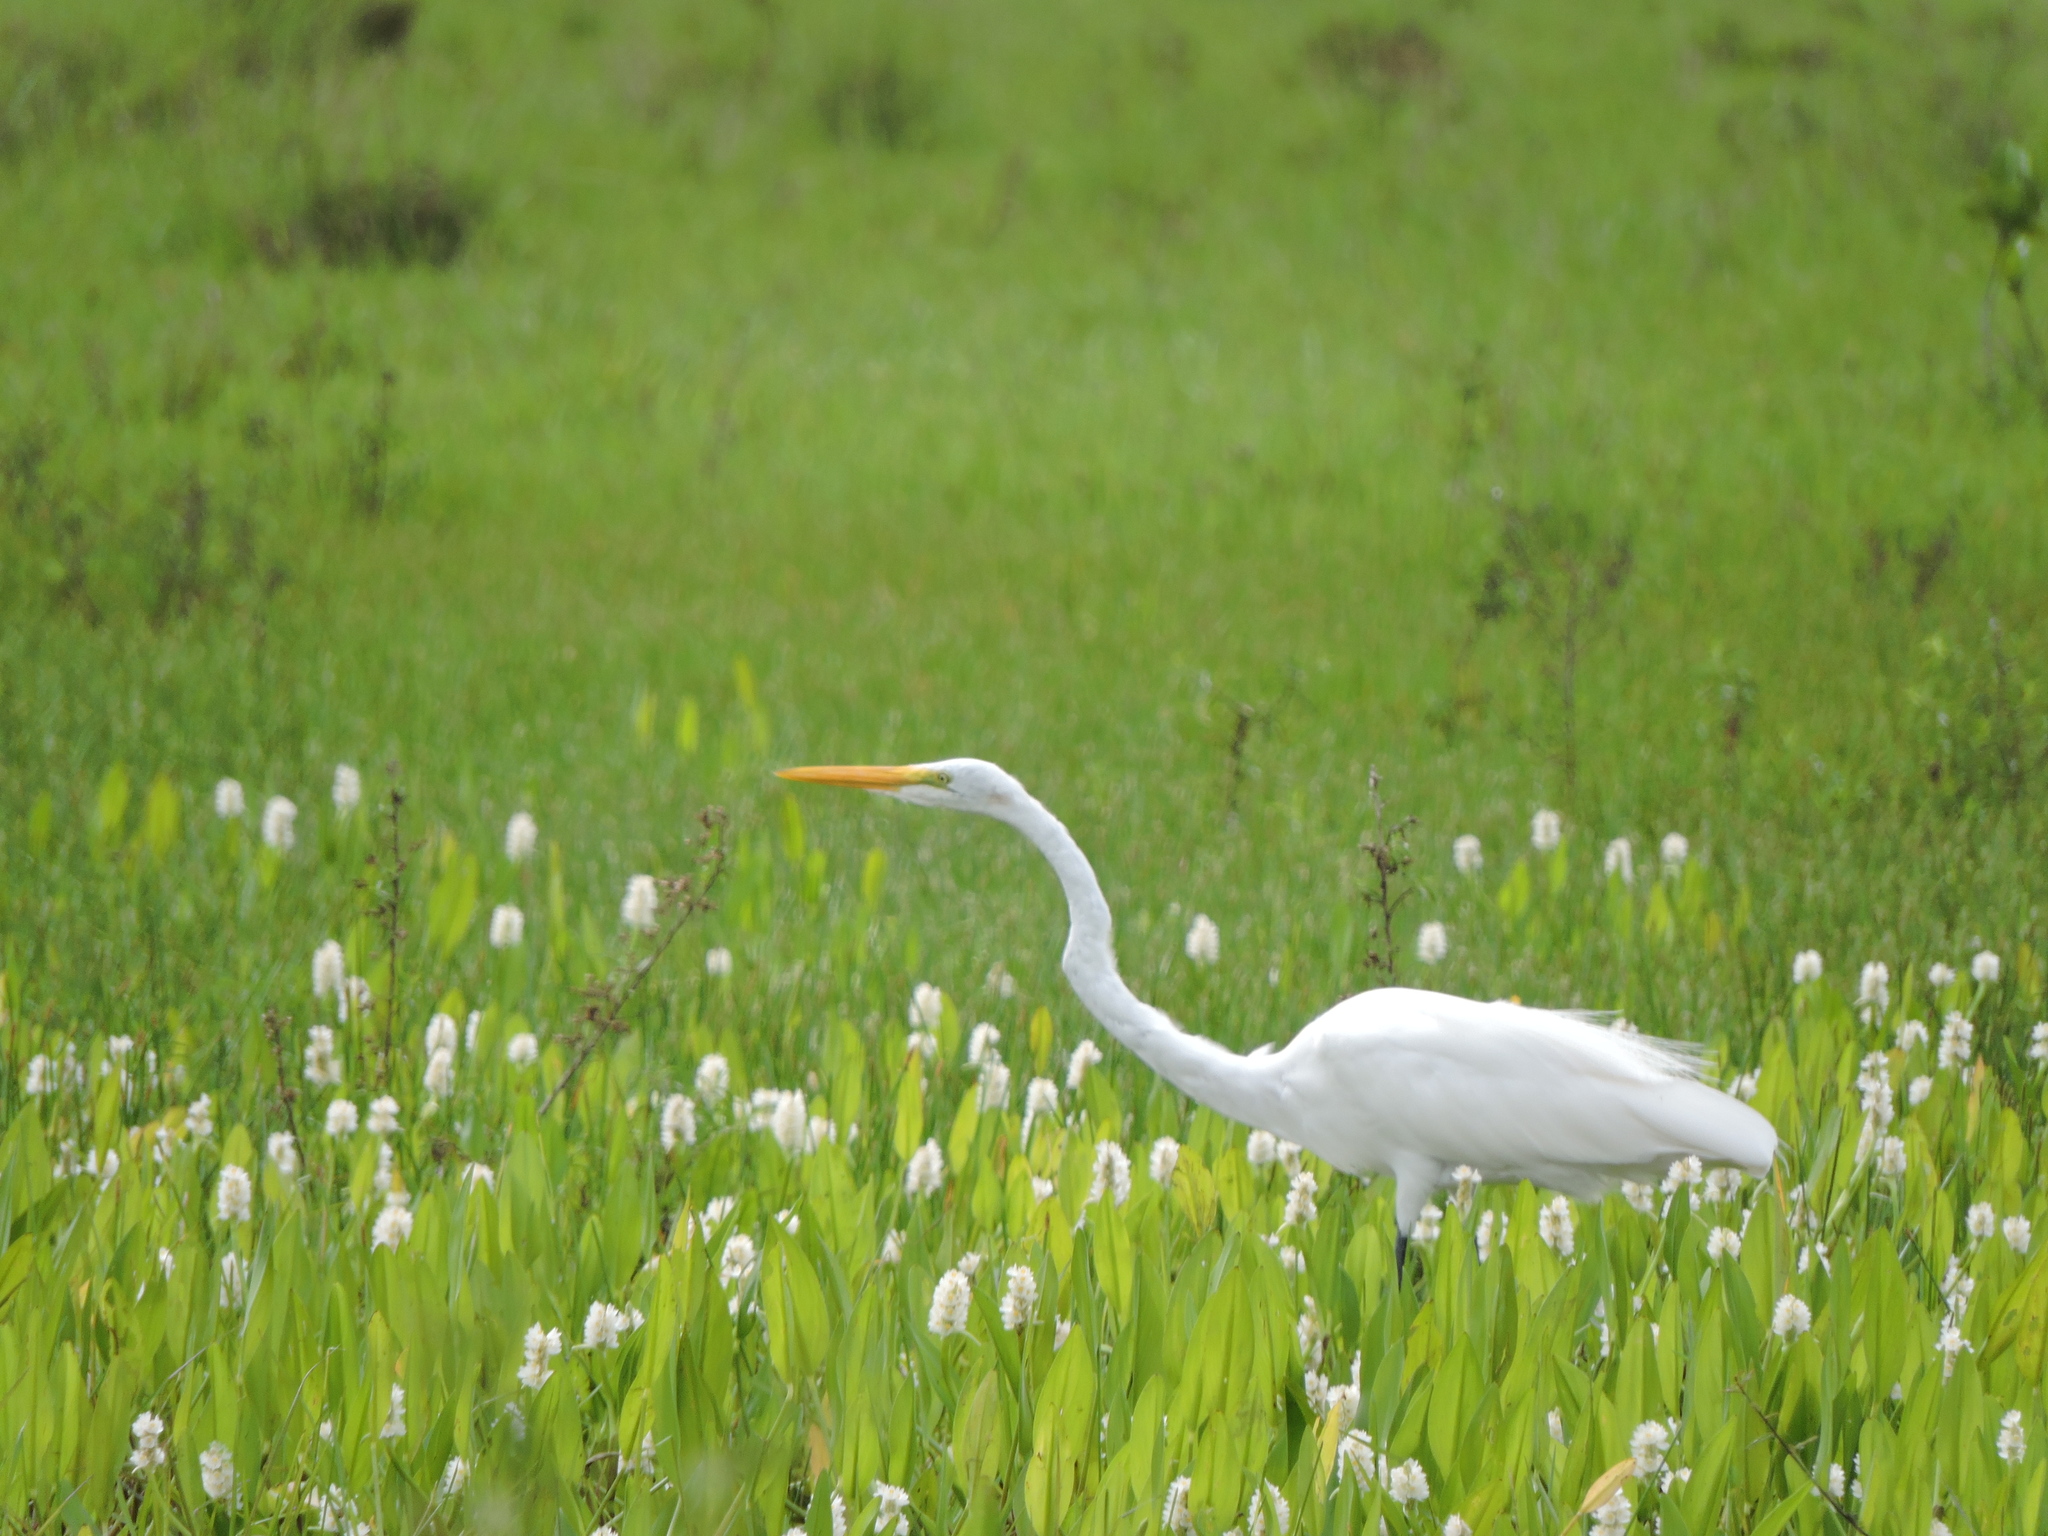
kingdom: Animalia
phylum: Chordata
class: Aves
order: Pelecaniformes
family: Ardeidae
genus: Ardea
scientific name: Ardea alba
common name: Great egret
